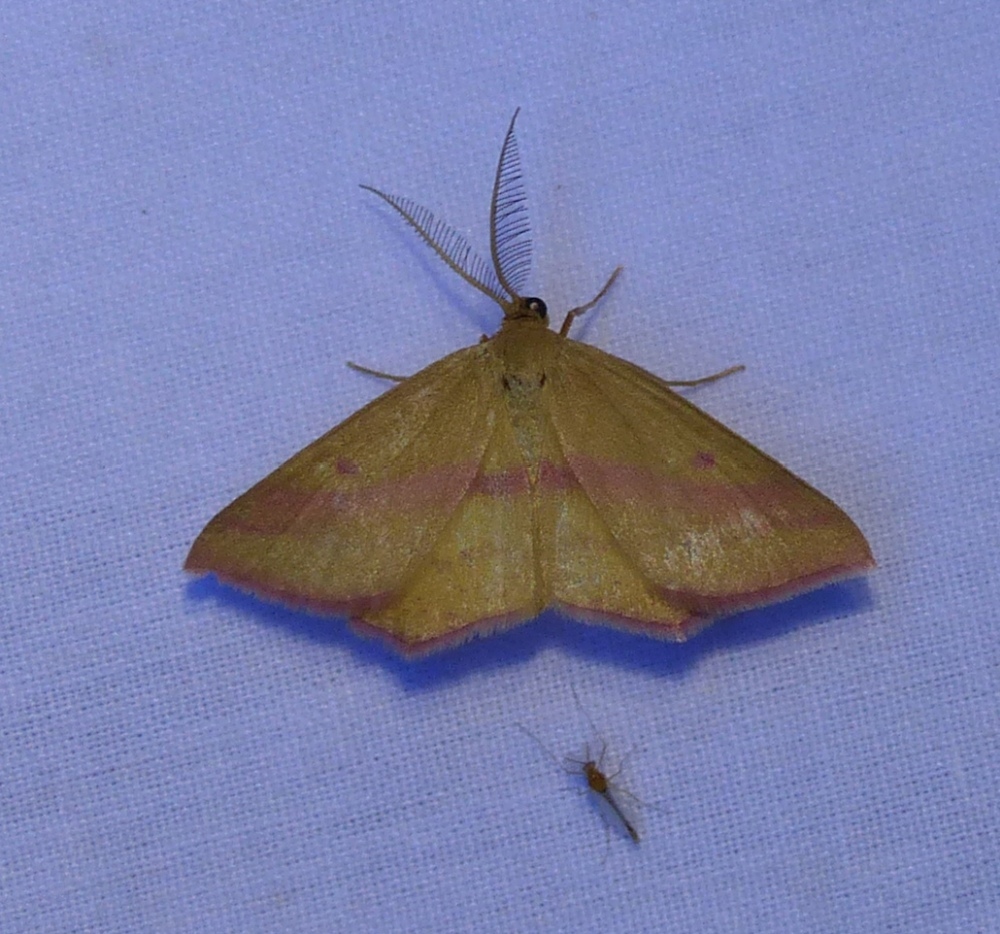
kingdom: Animalia
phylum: Arthropoda
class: Insecta
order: Lepidoptera
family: Geometridae
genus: Haematopis
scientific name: Haematopis grataria
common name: Chickweed geometer
